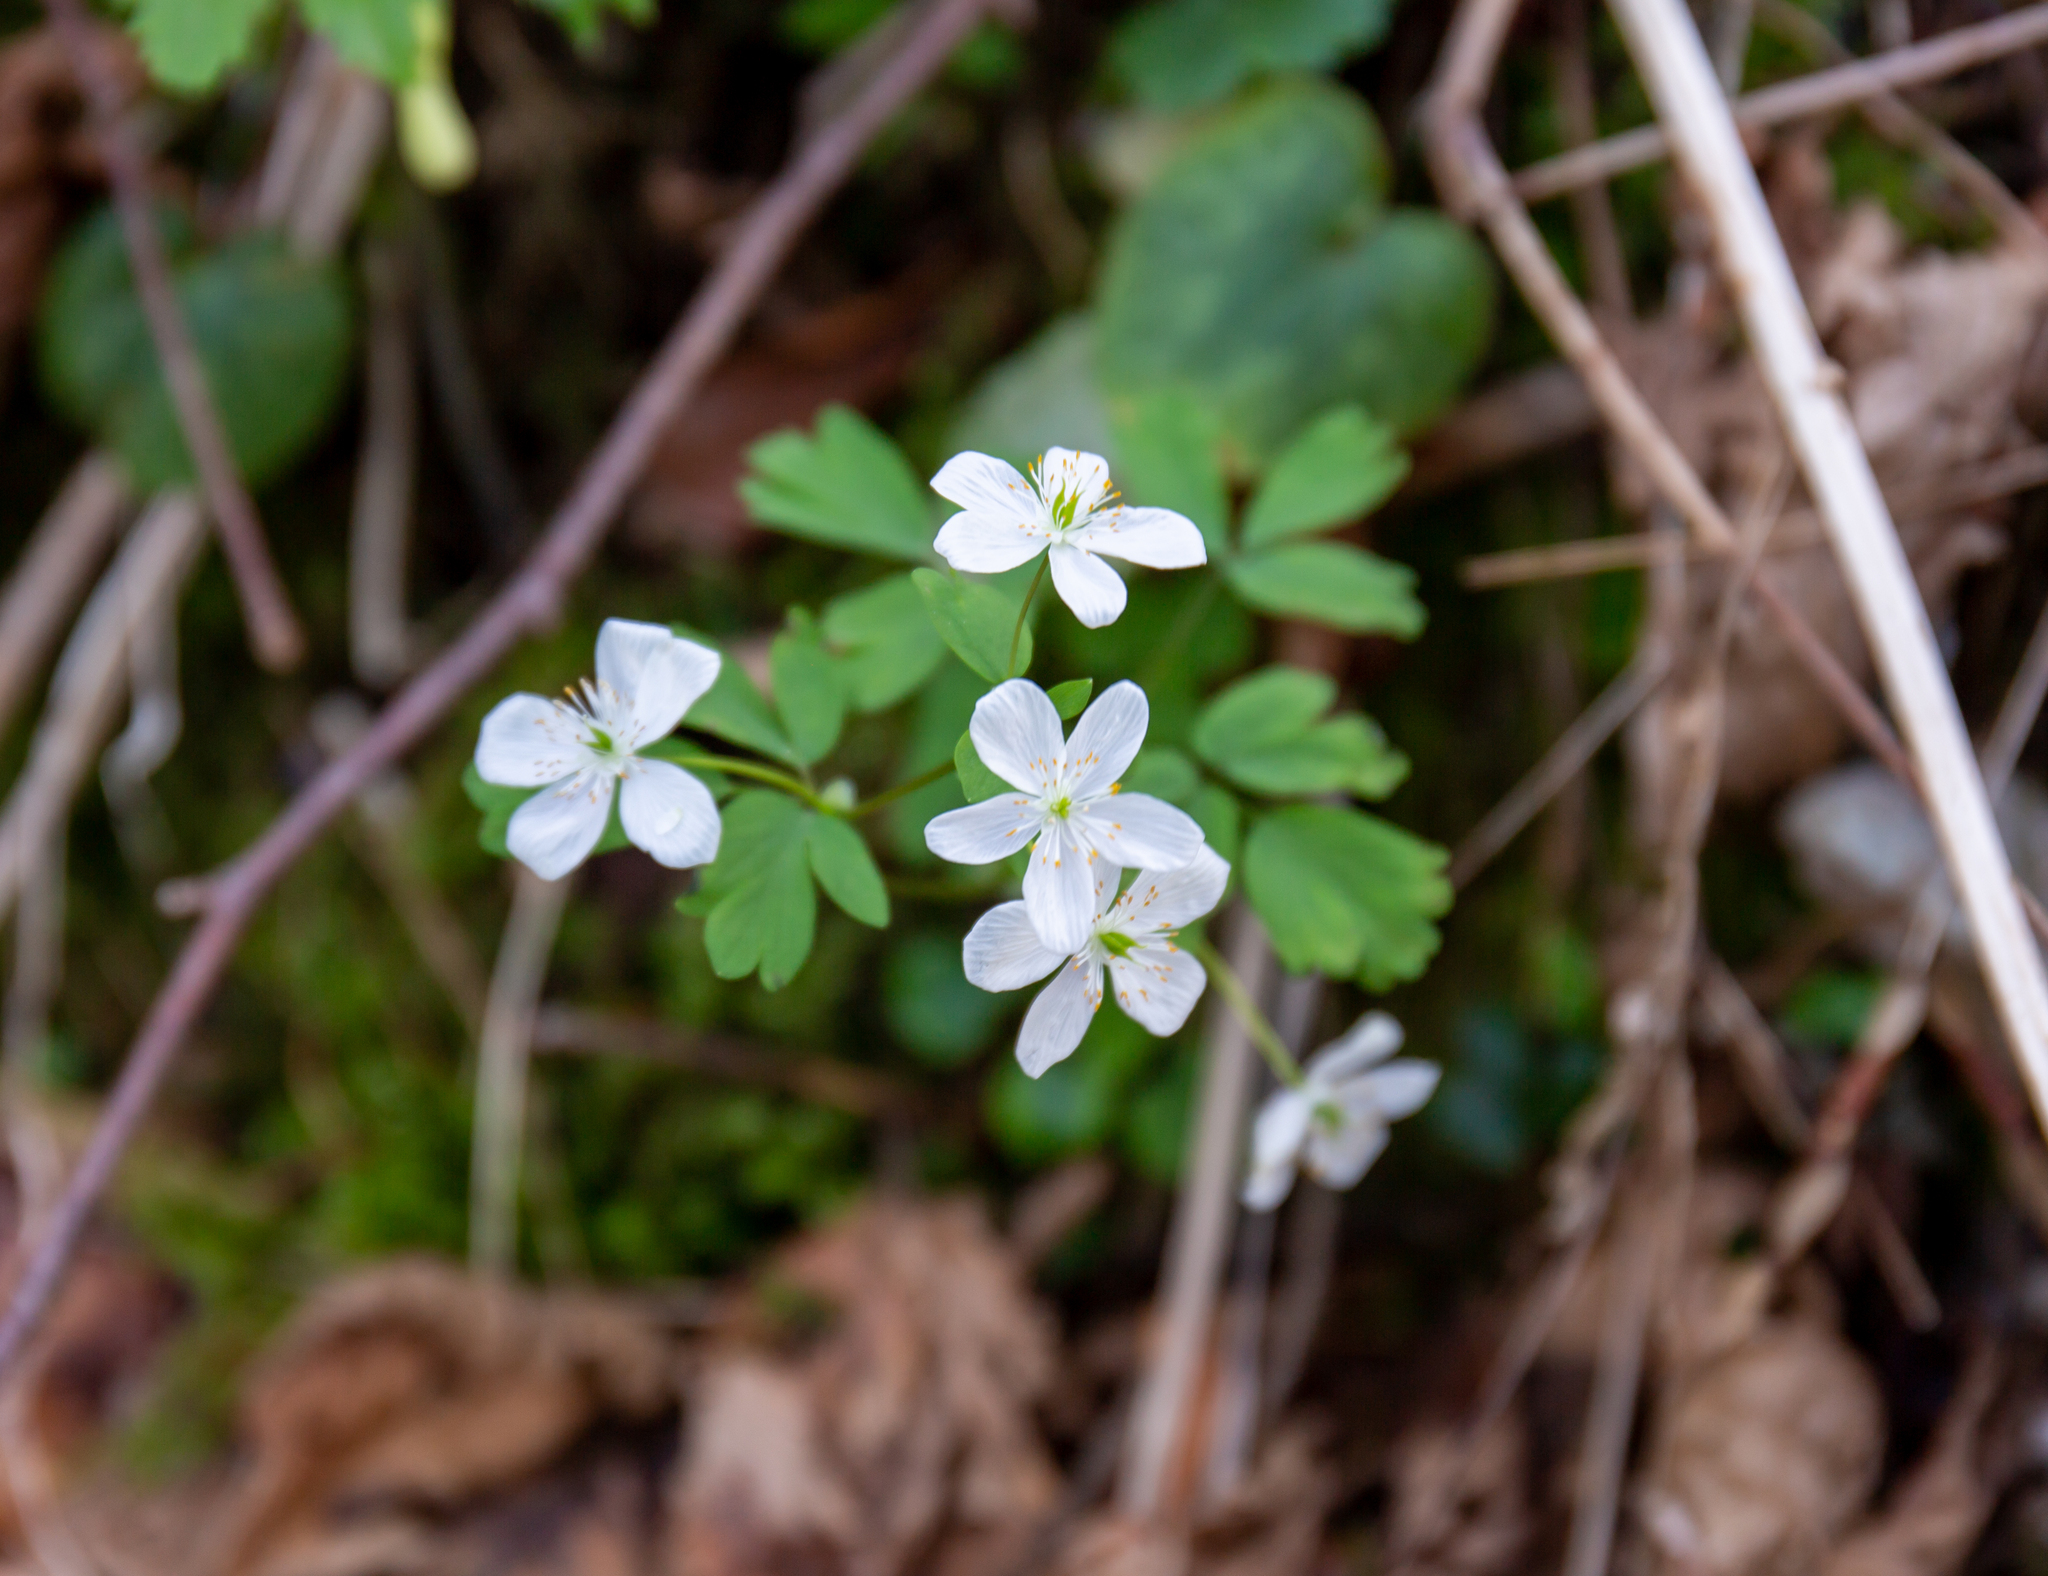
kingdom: Plantae
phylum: Tracheophyta
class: Magnoliopsida
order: Ranunculales
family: Ranunculaceae
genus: Isopyrum
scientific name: Isopyrum thalictroides
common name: Isopyrum
